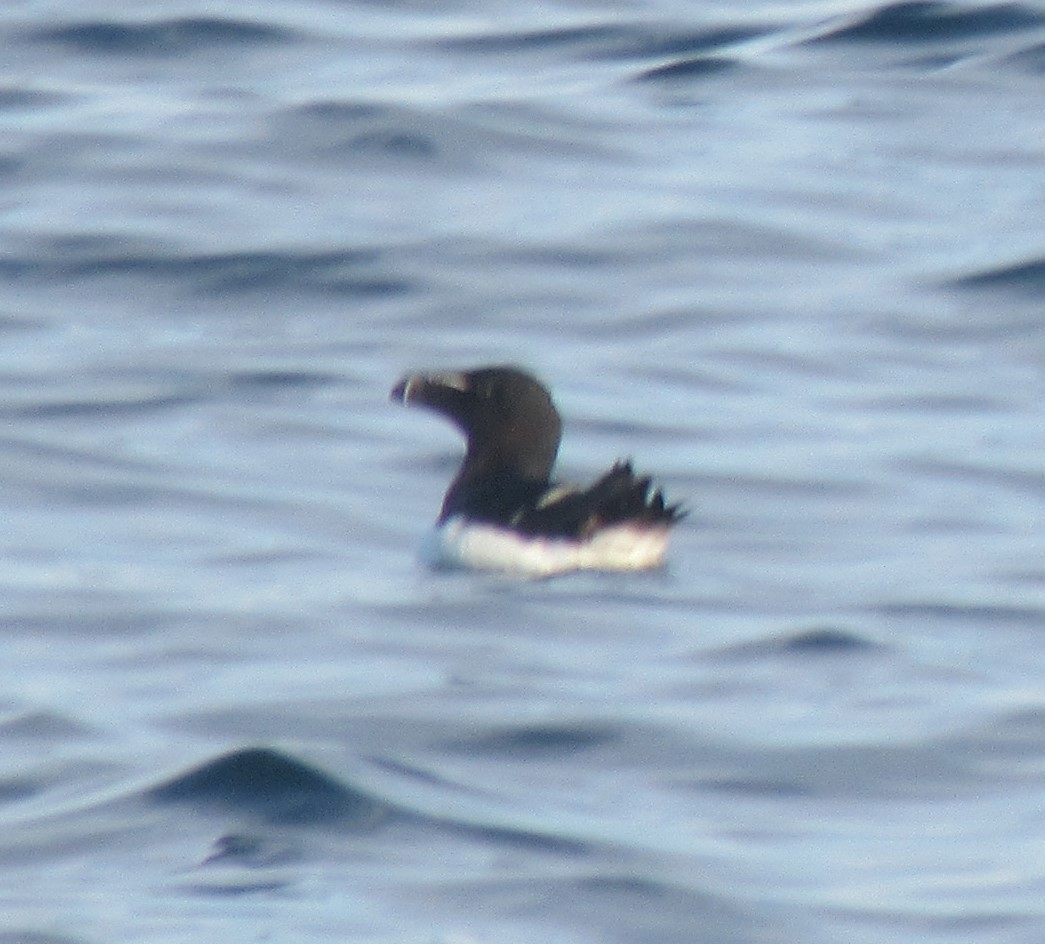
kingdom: Animalia
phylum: Chordata
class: Aves
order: Charadriiformes
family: Alcidae
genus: Alca
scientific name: Alca torda
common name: Razorbill
